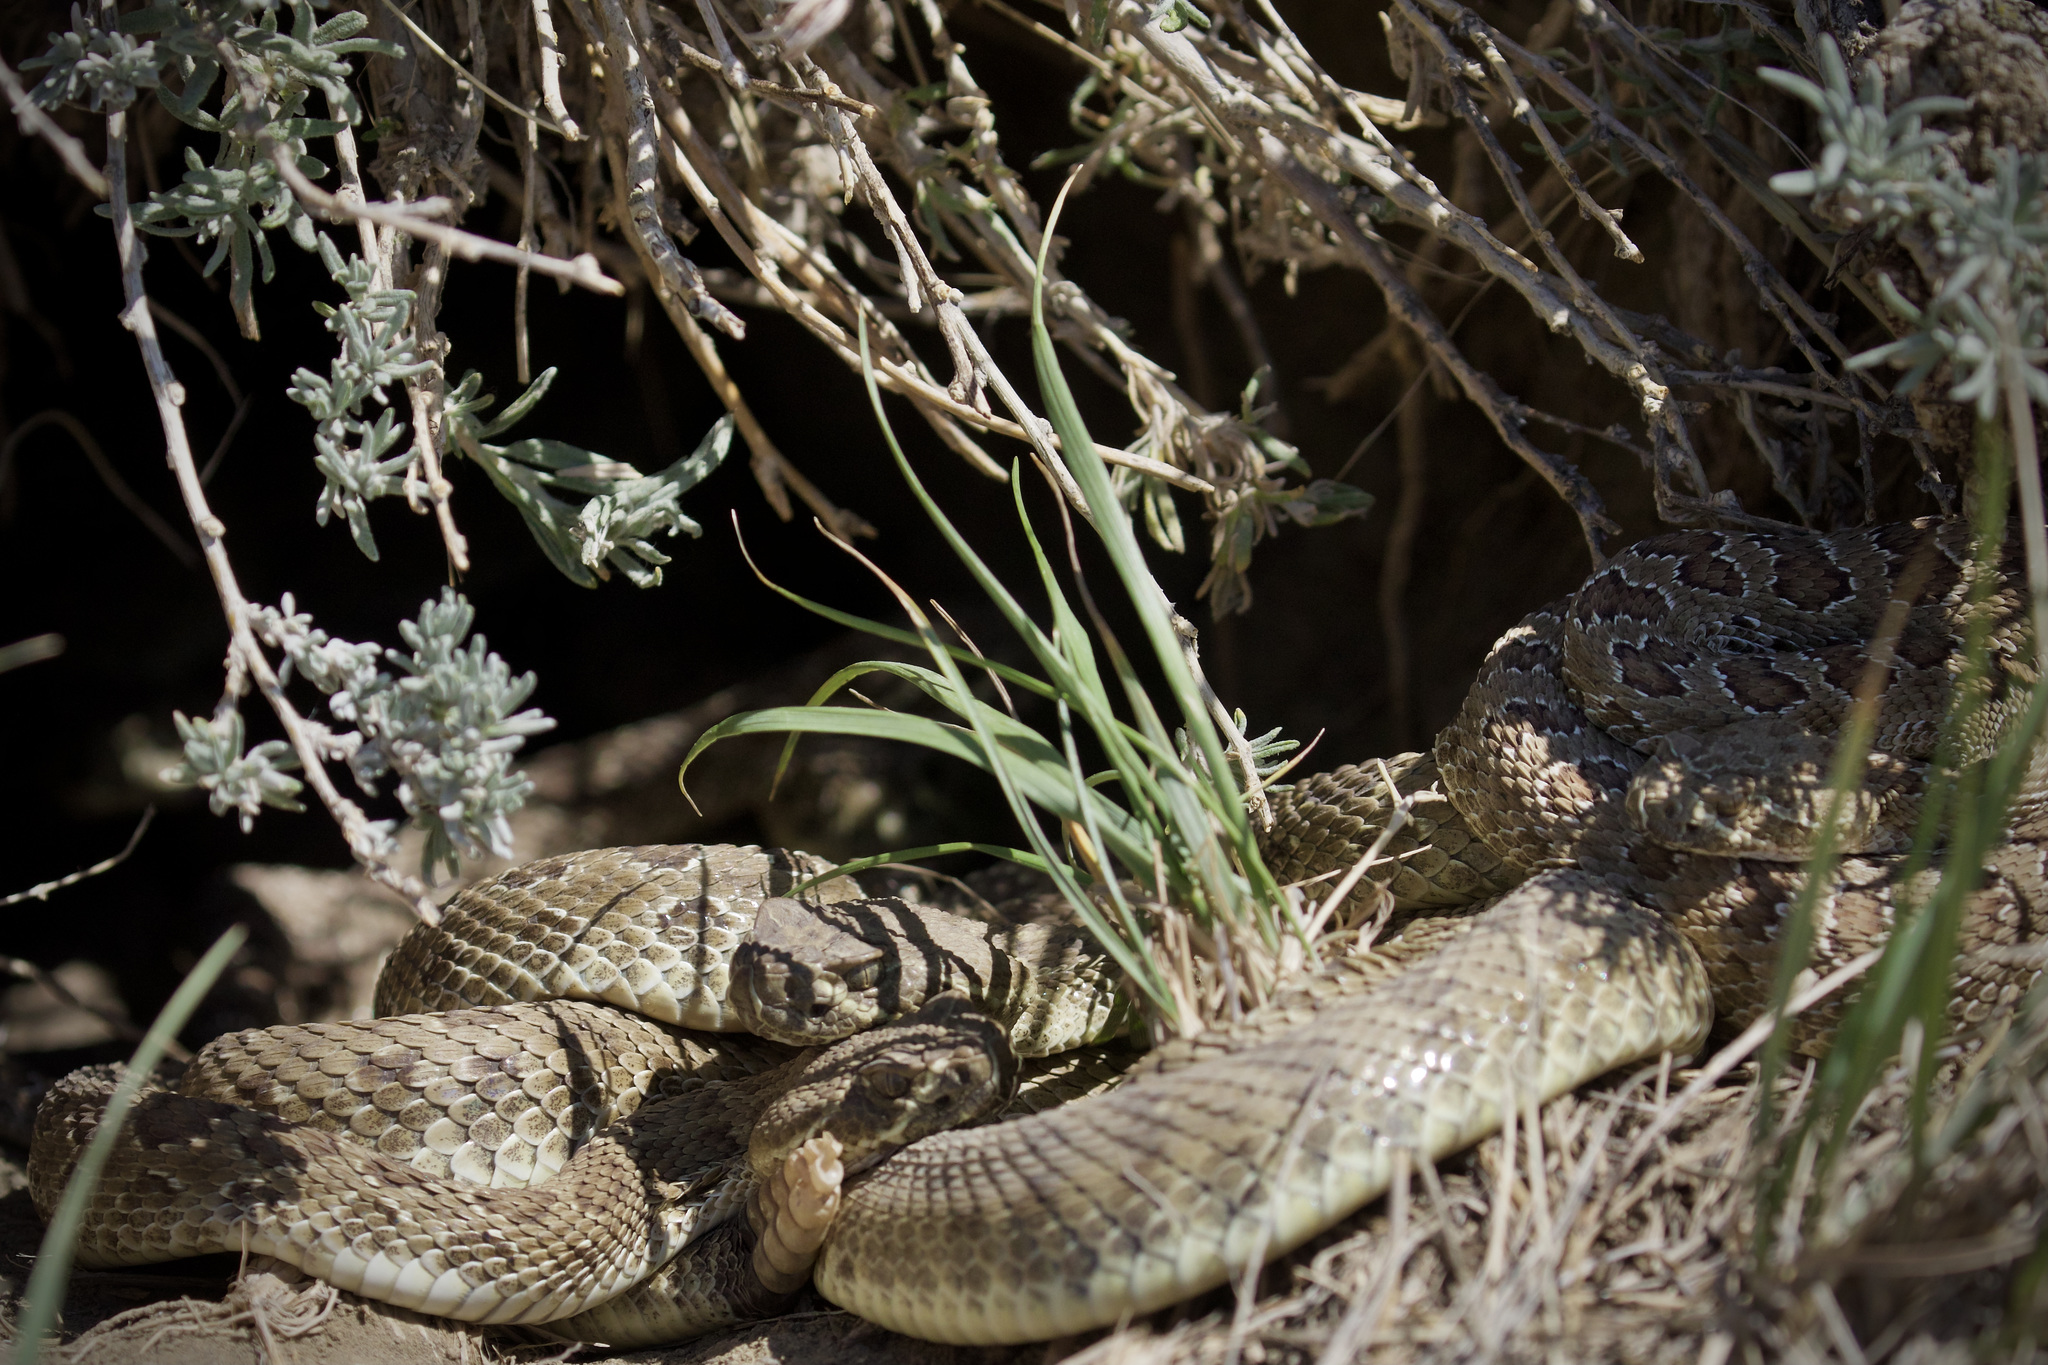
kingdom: Animalia
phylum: Chordata
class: Squamata
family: Viperidae
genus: Crotalus
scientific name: Crotalus viridis
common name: Prairie rattlesnake
